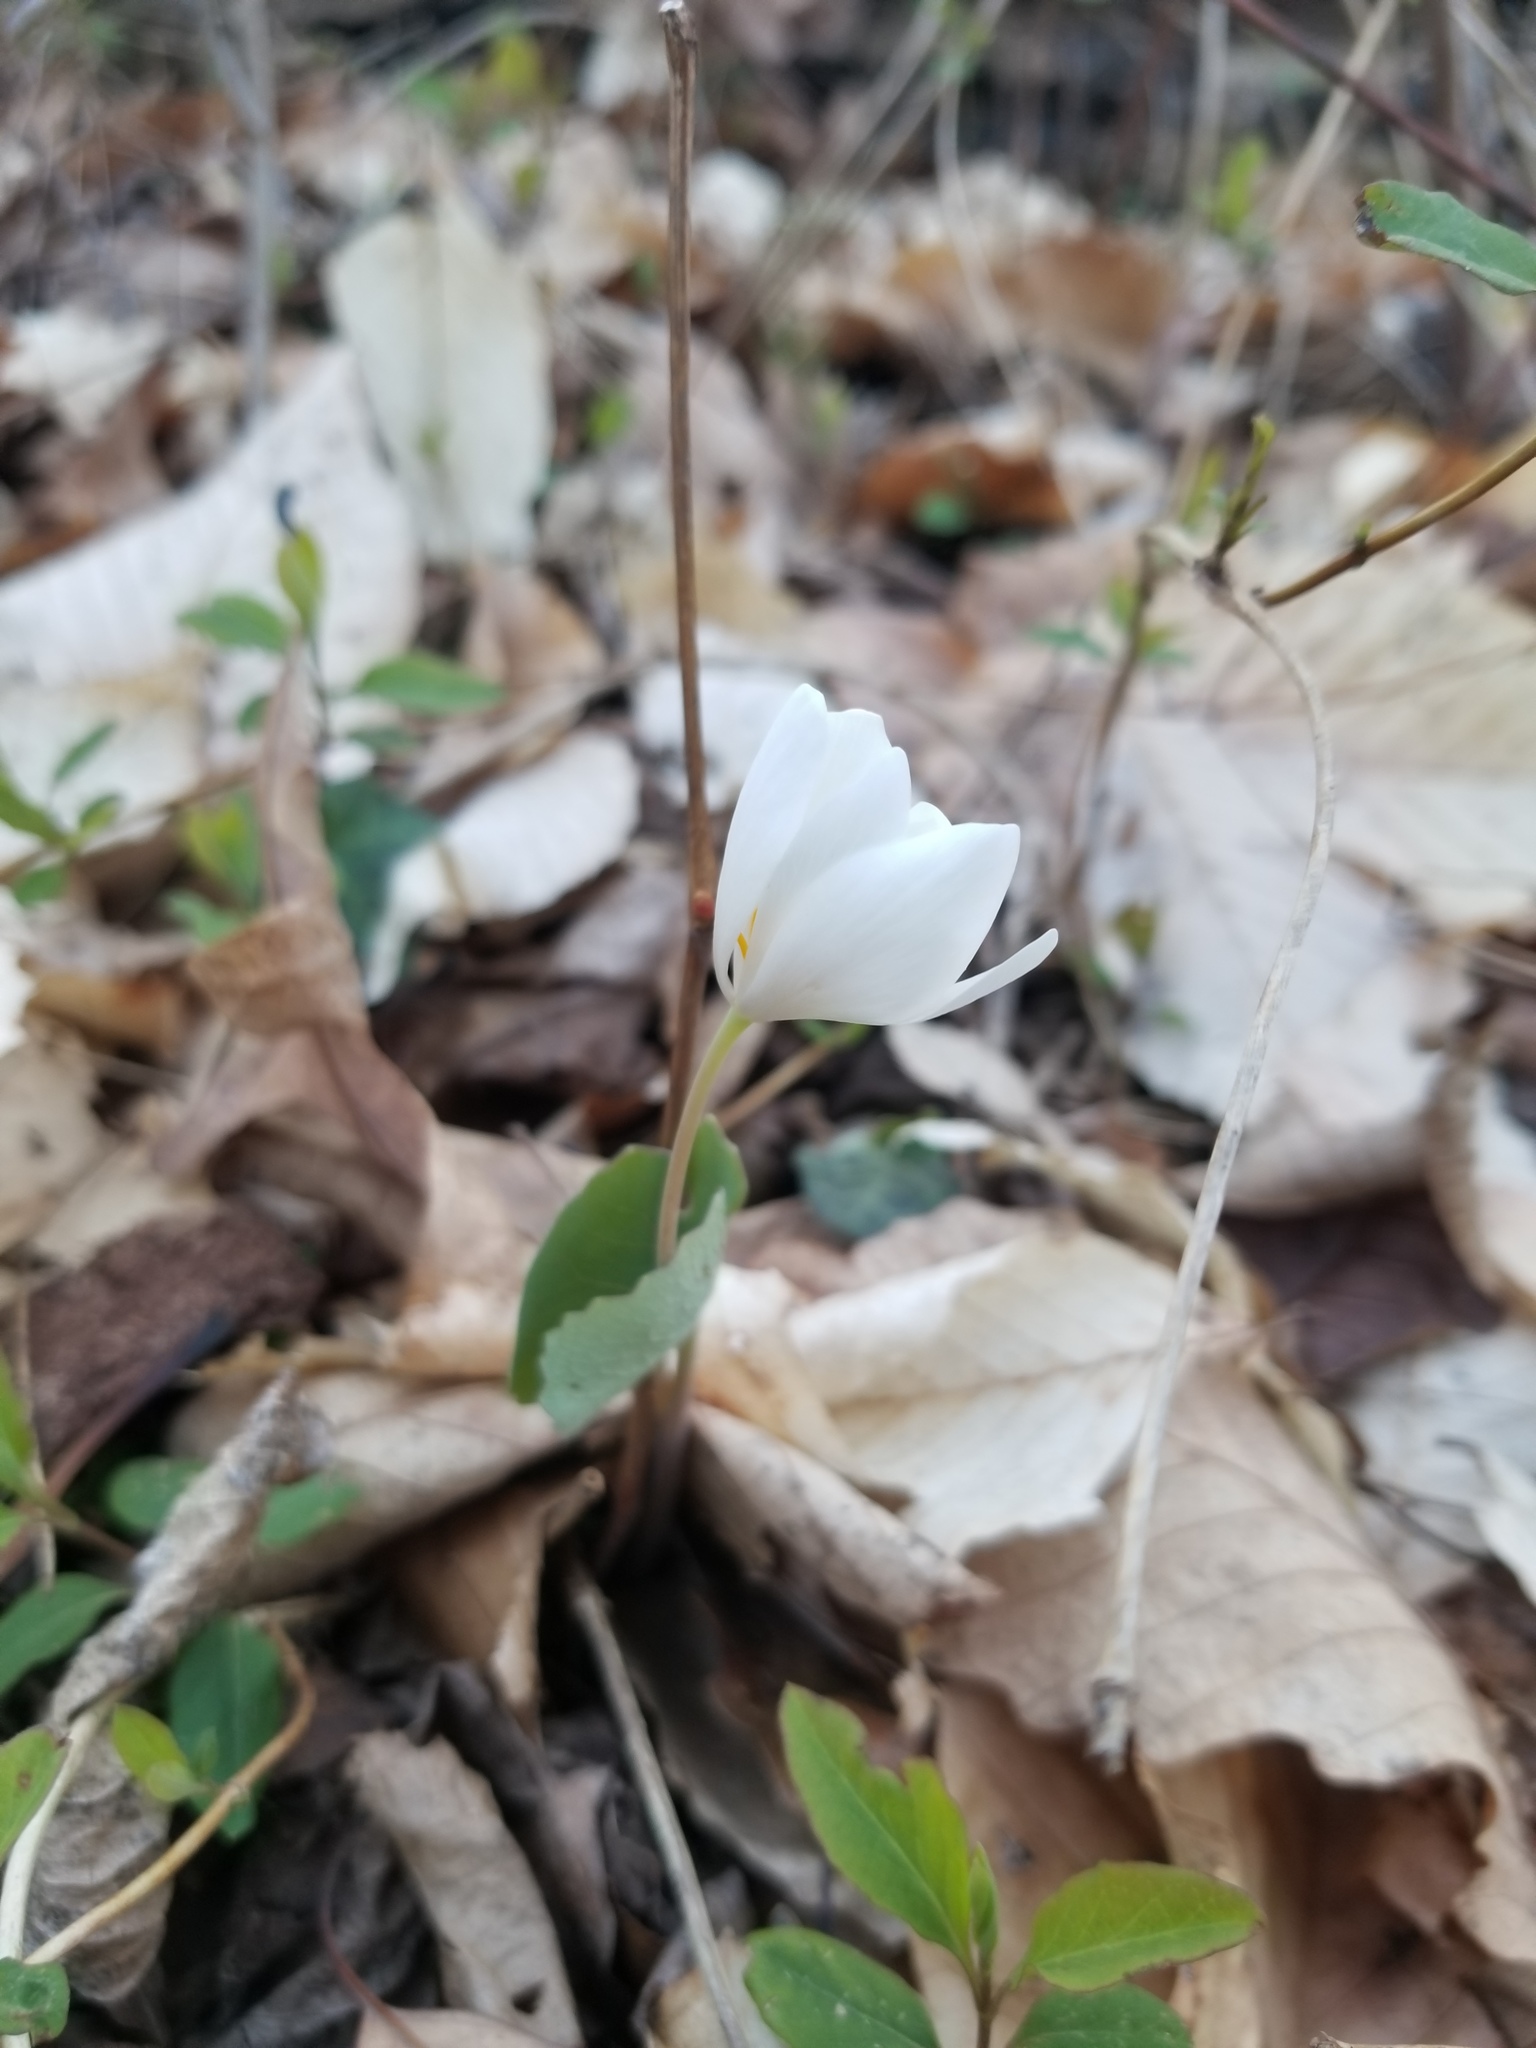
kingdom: Plantae
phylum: Tracheophyta
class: Magnoliopsida
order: Ranunculales
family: Papaveraceae
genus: Sanguinaria
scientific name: Sanguinaria canadensis
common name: Bloodroot
